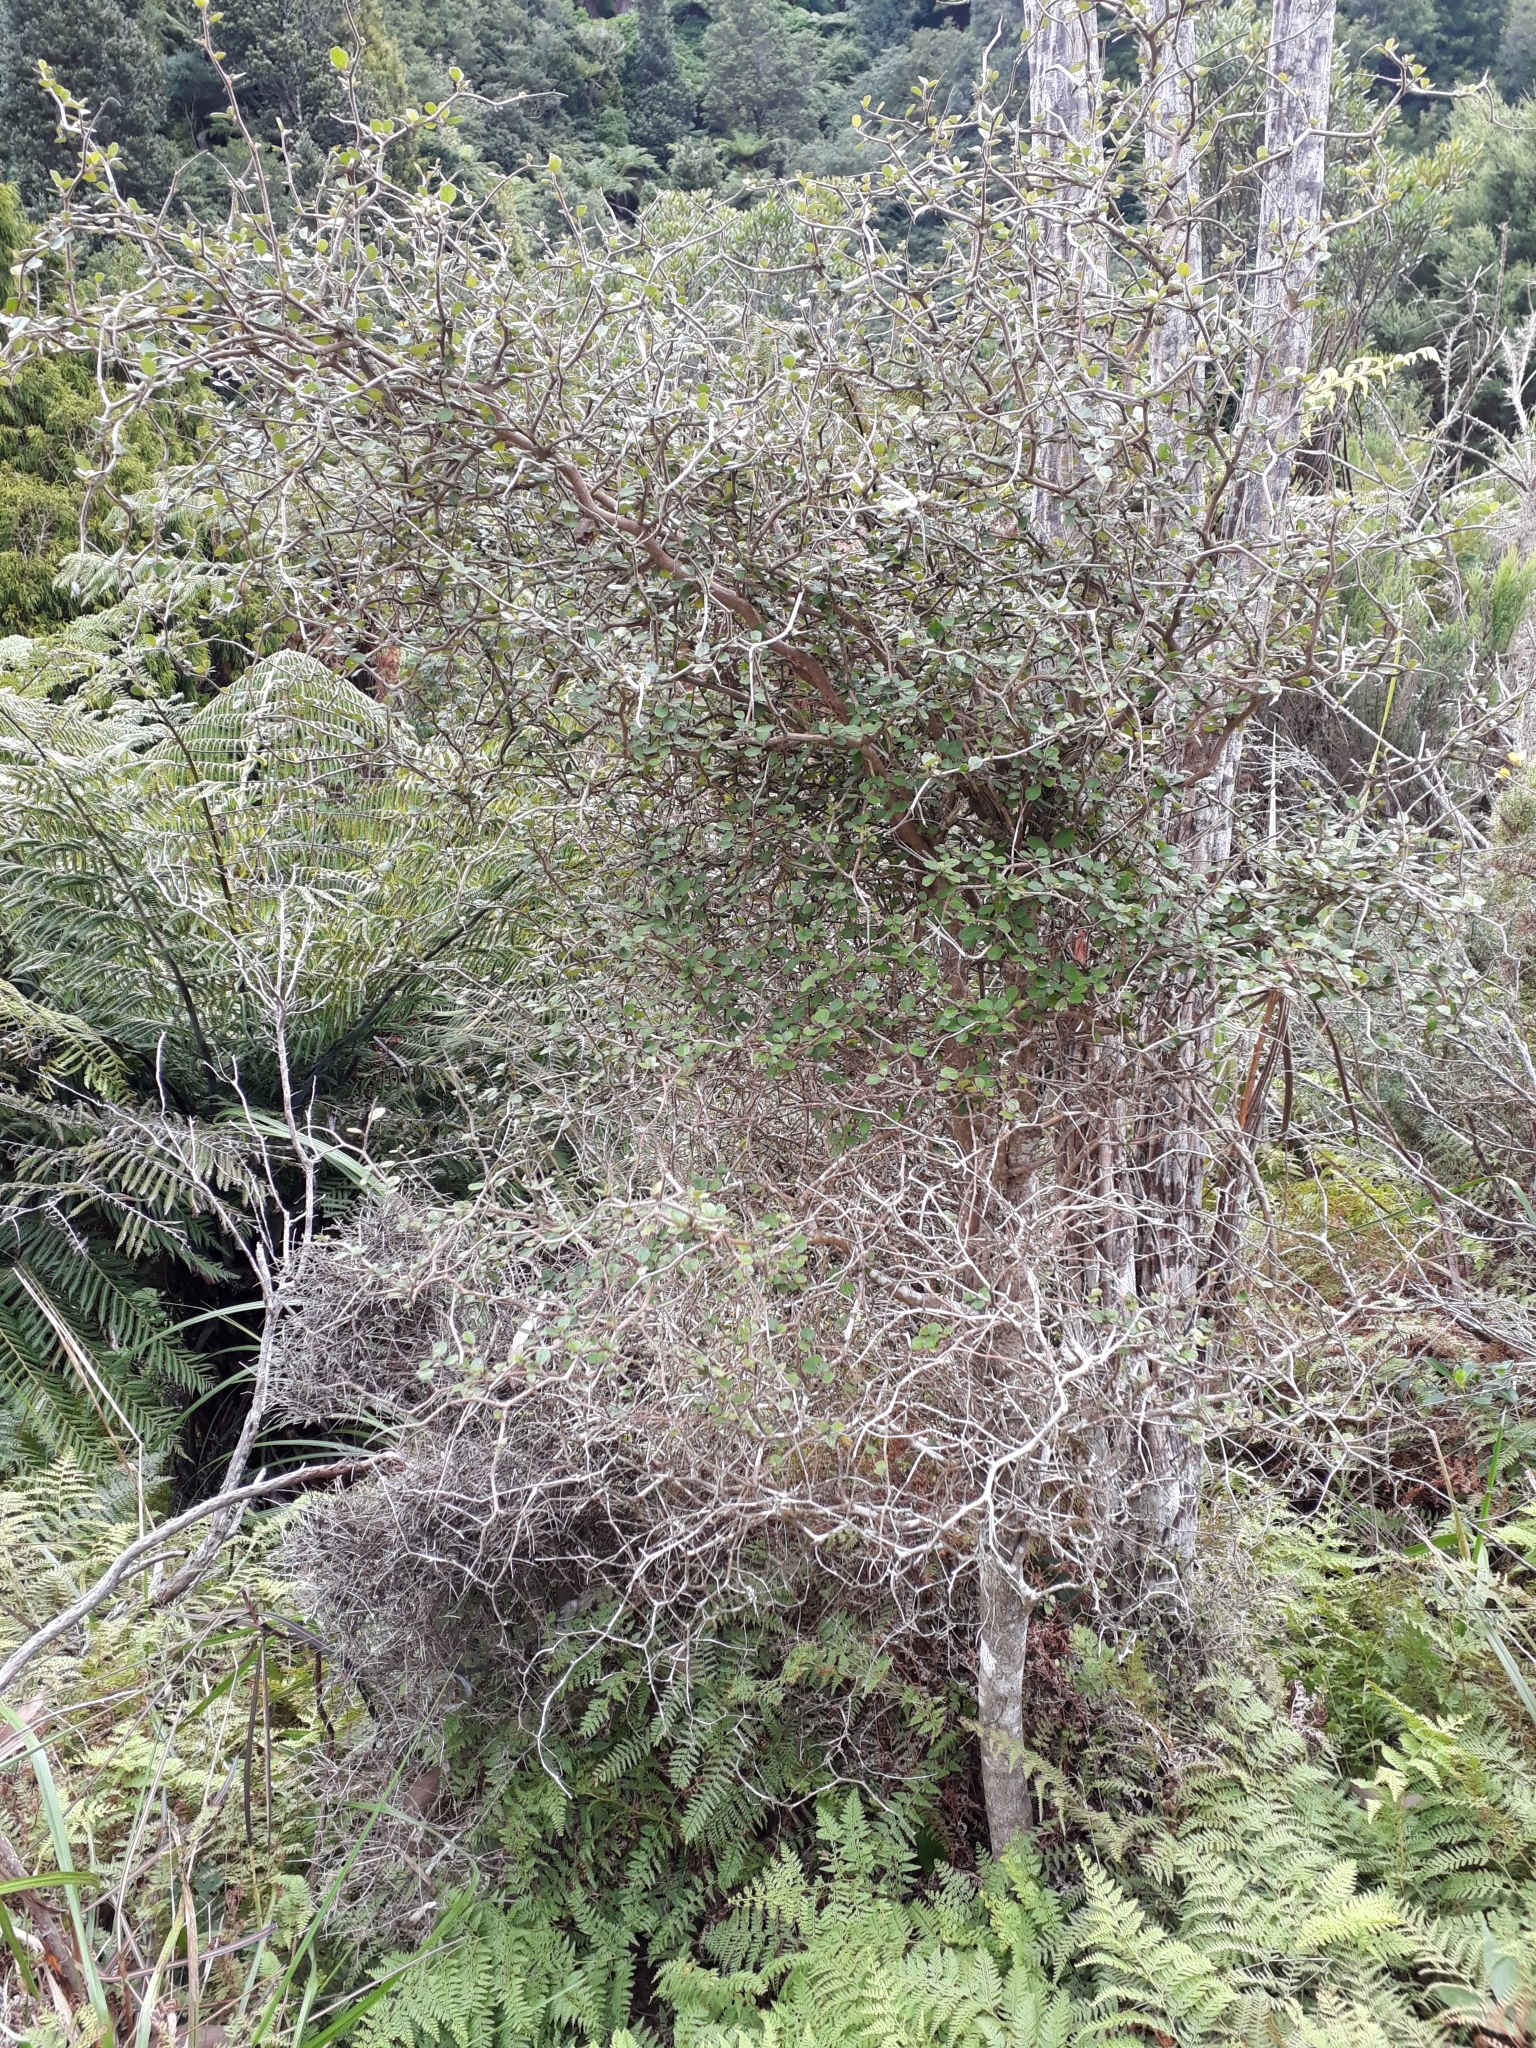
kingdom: Plantae
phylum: Tracheophyta
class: Magnoliopsida
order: Apiales
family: Pennantiaceae
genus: Pennantia
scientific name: Pennantia corymbosa
